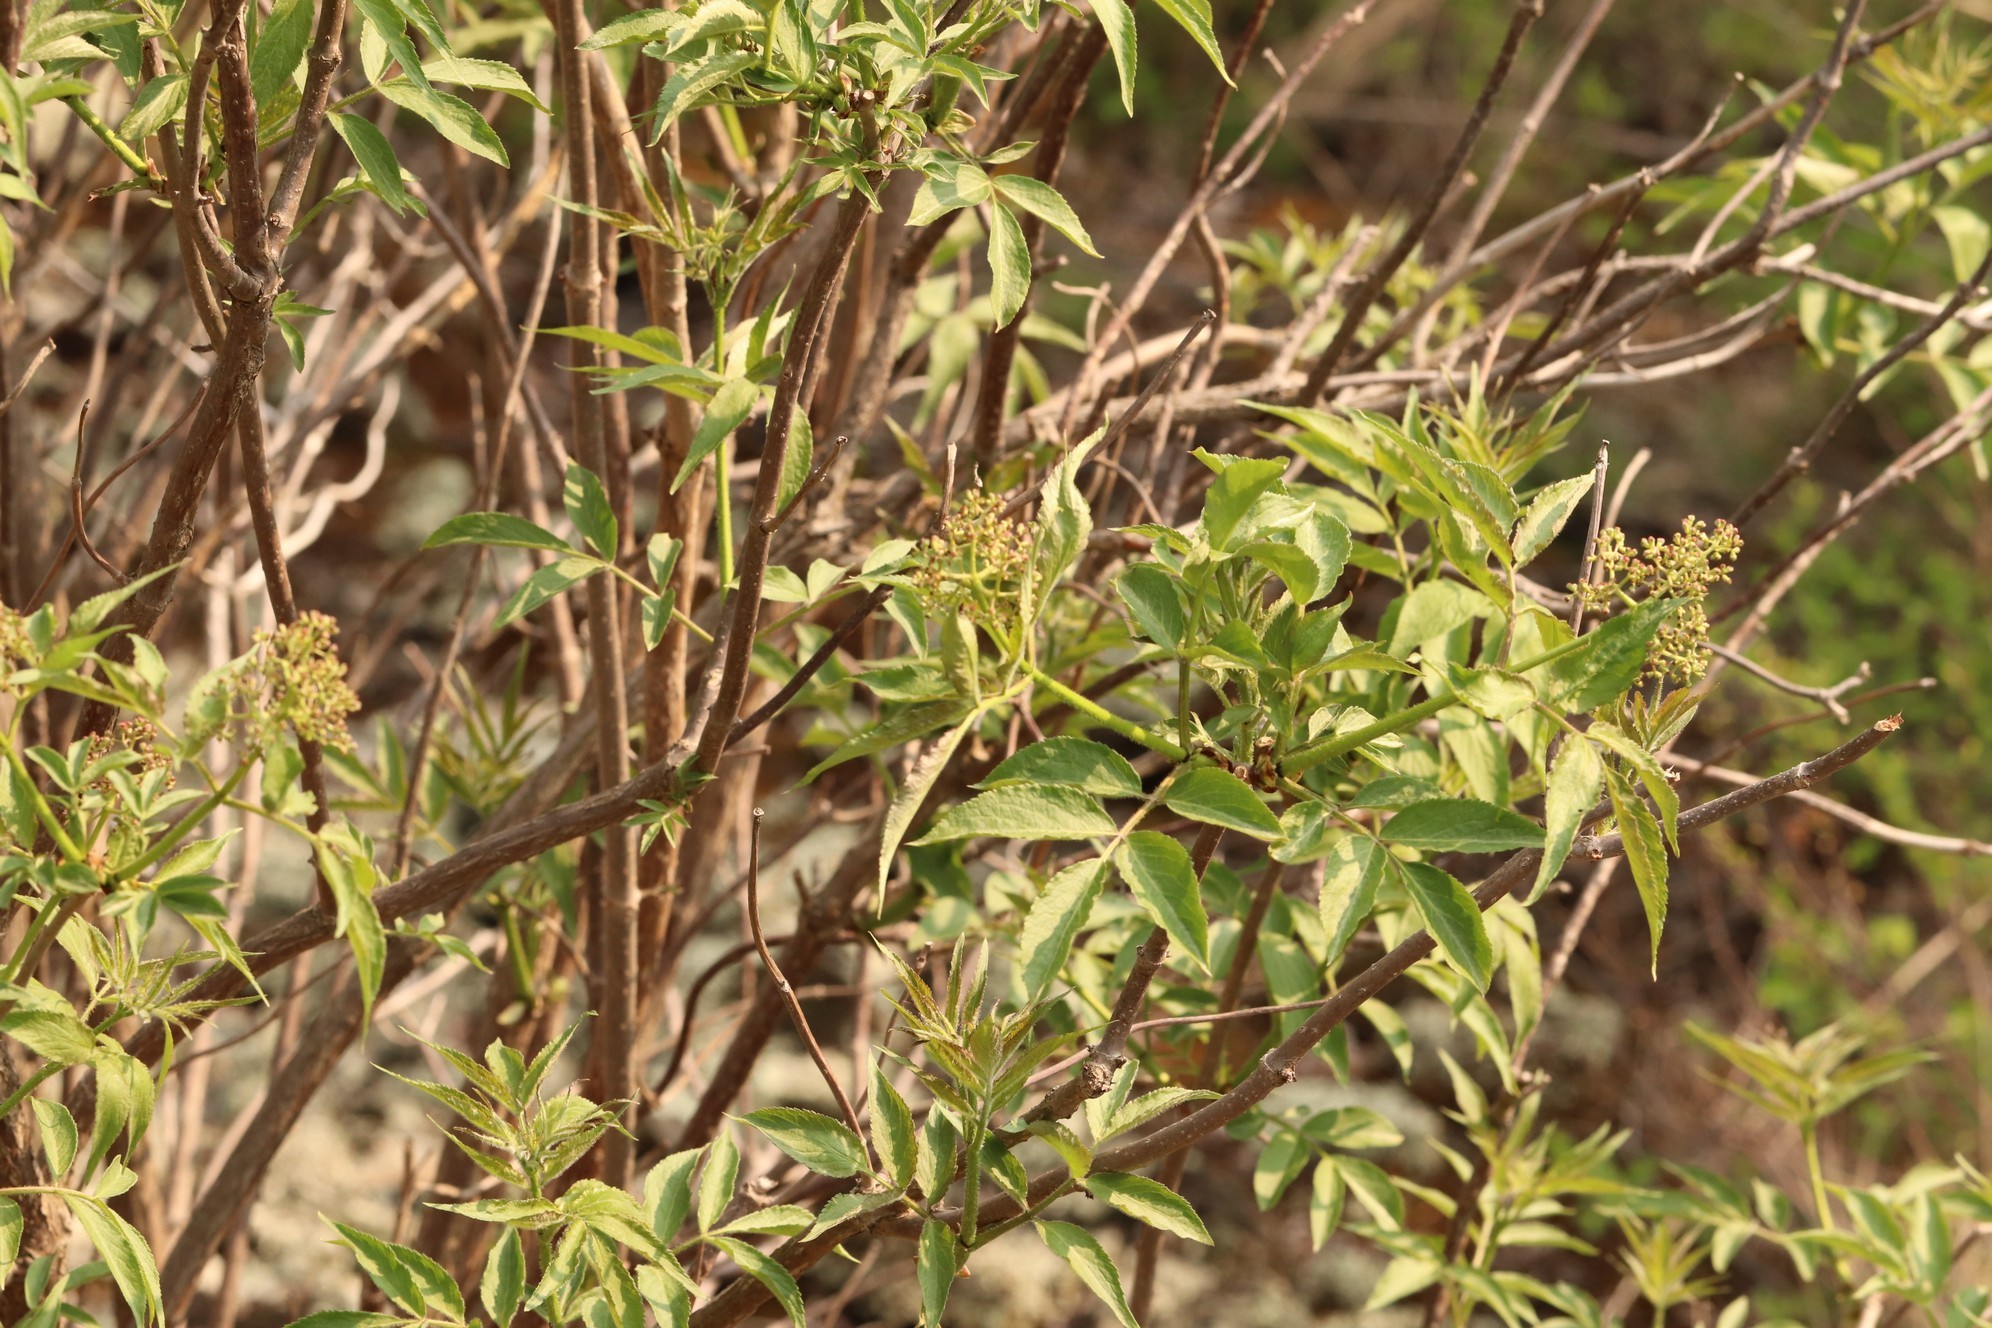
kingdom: Plantae
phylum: Tracheophyta
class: Magnoliopsida
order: Dipsacales
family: Viburnaceae
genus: Sambucus
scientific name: Sambucus sibirica
